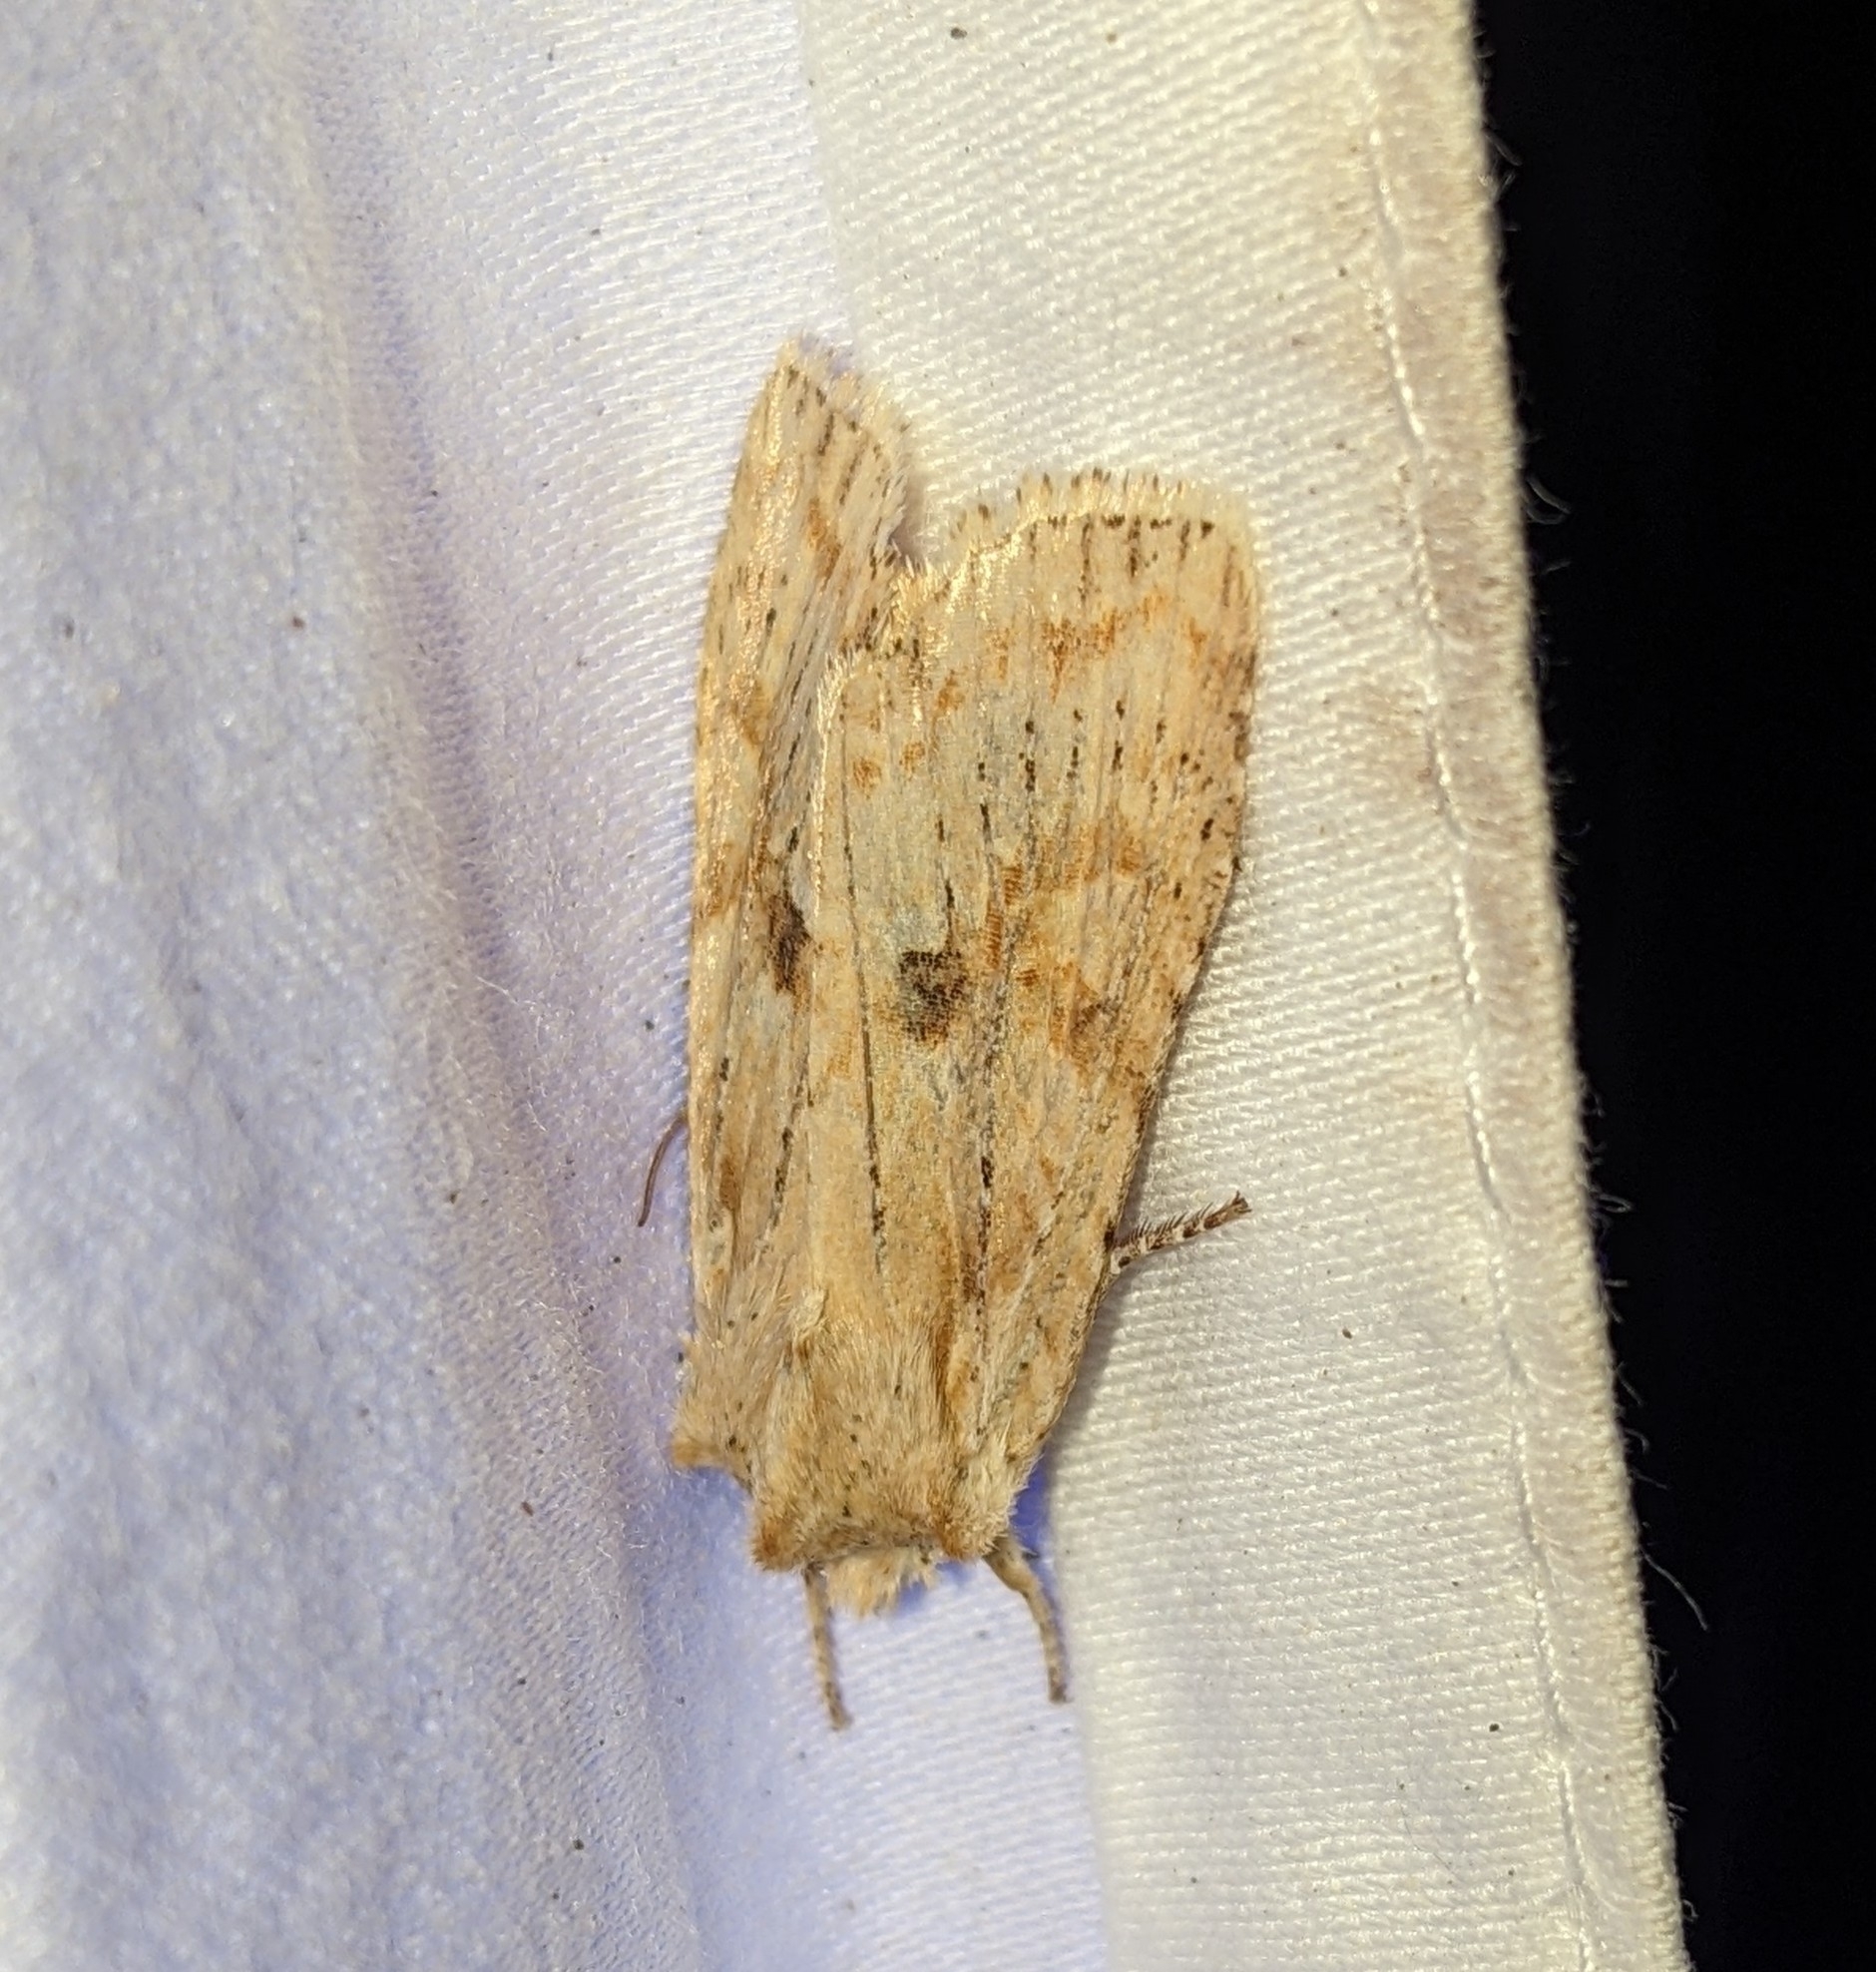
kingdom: Animalia
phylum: Arthropoda
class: Insecta
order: Lepidoptera
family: Noctuidae
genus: Lithophane
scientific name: Lithophane innominata
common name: Nameless pinion moth
